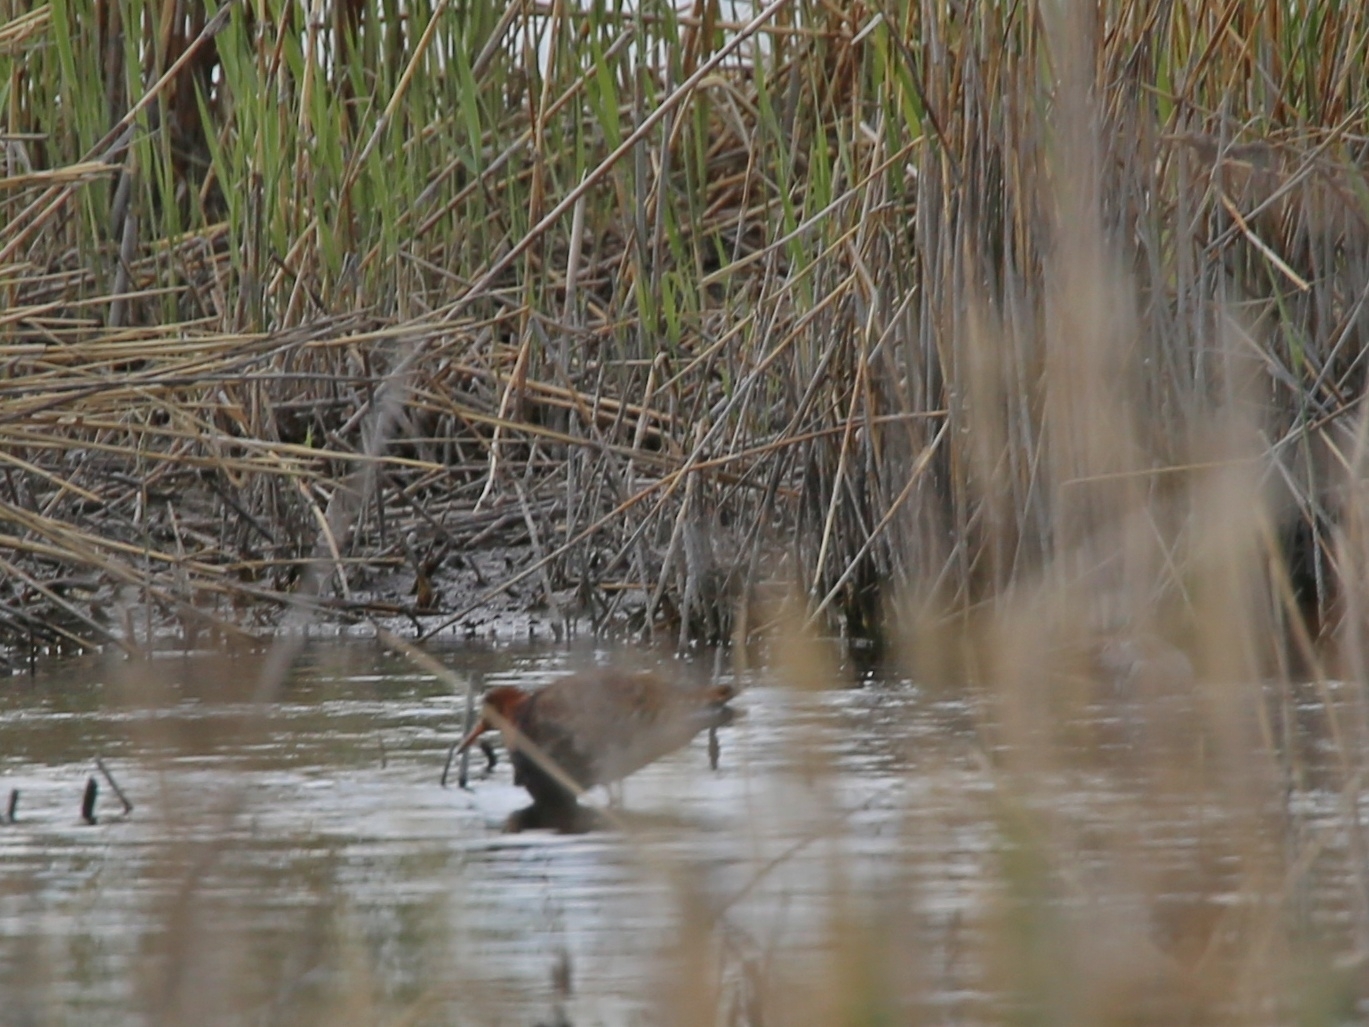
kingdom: Animalia
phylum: Chordata
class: Aves
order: Charadriiformes
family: Scolopacidae
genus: Calidris
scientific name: Calidris pugnax
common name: Ruff
